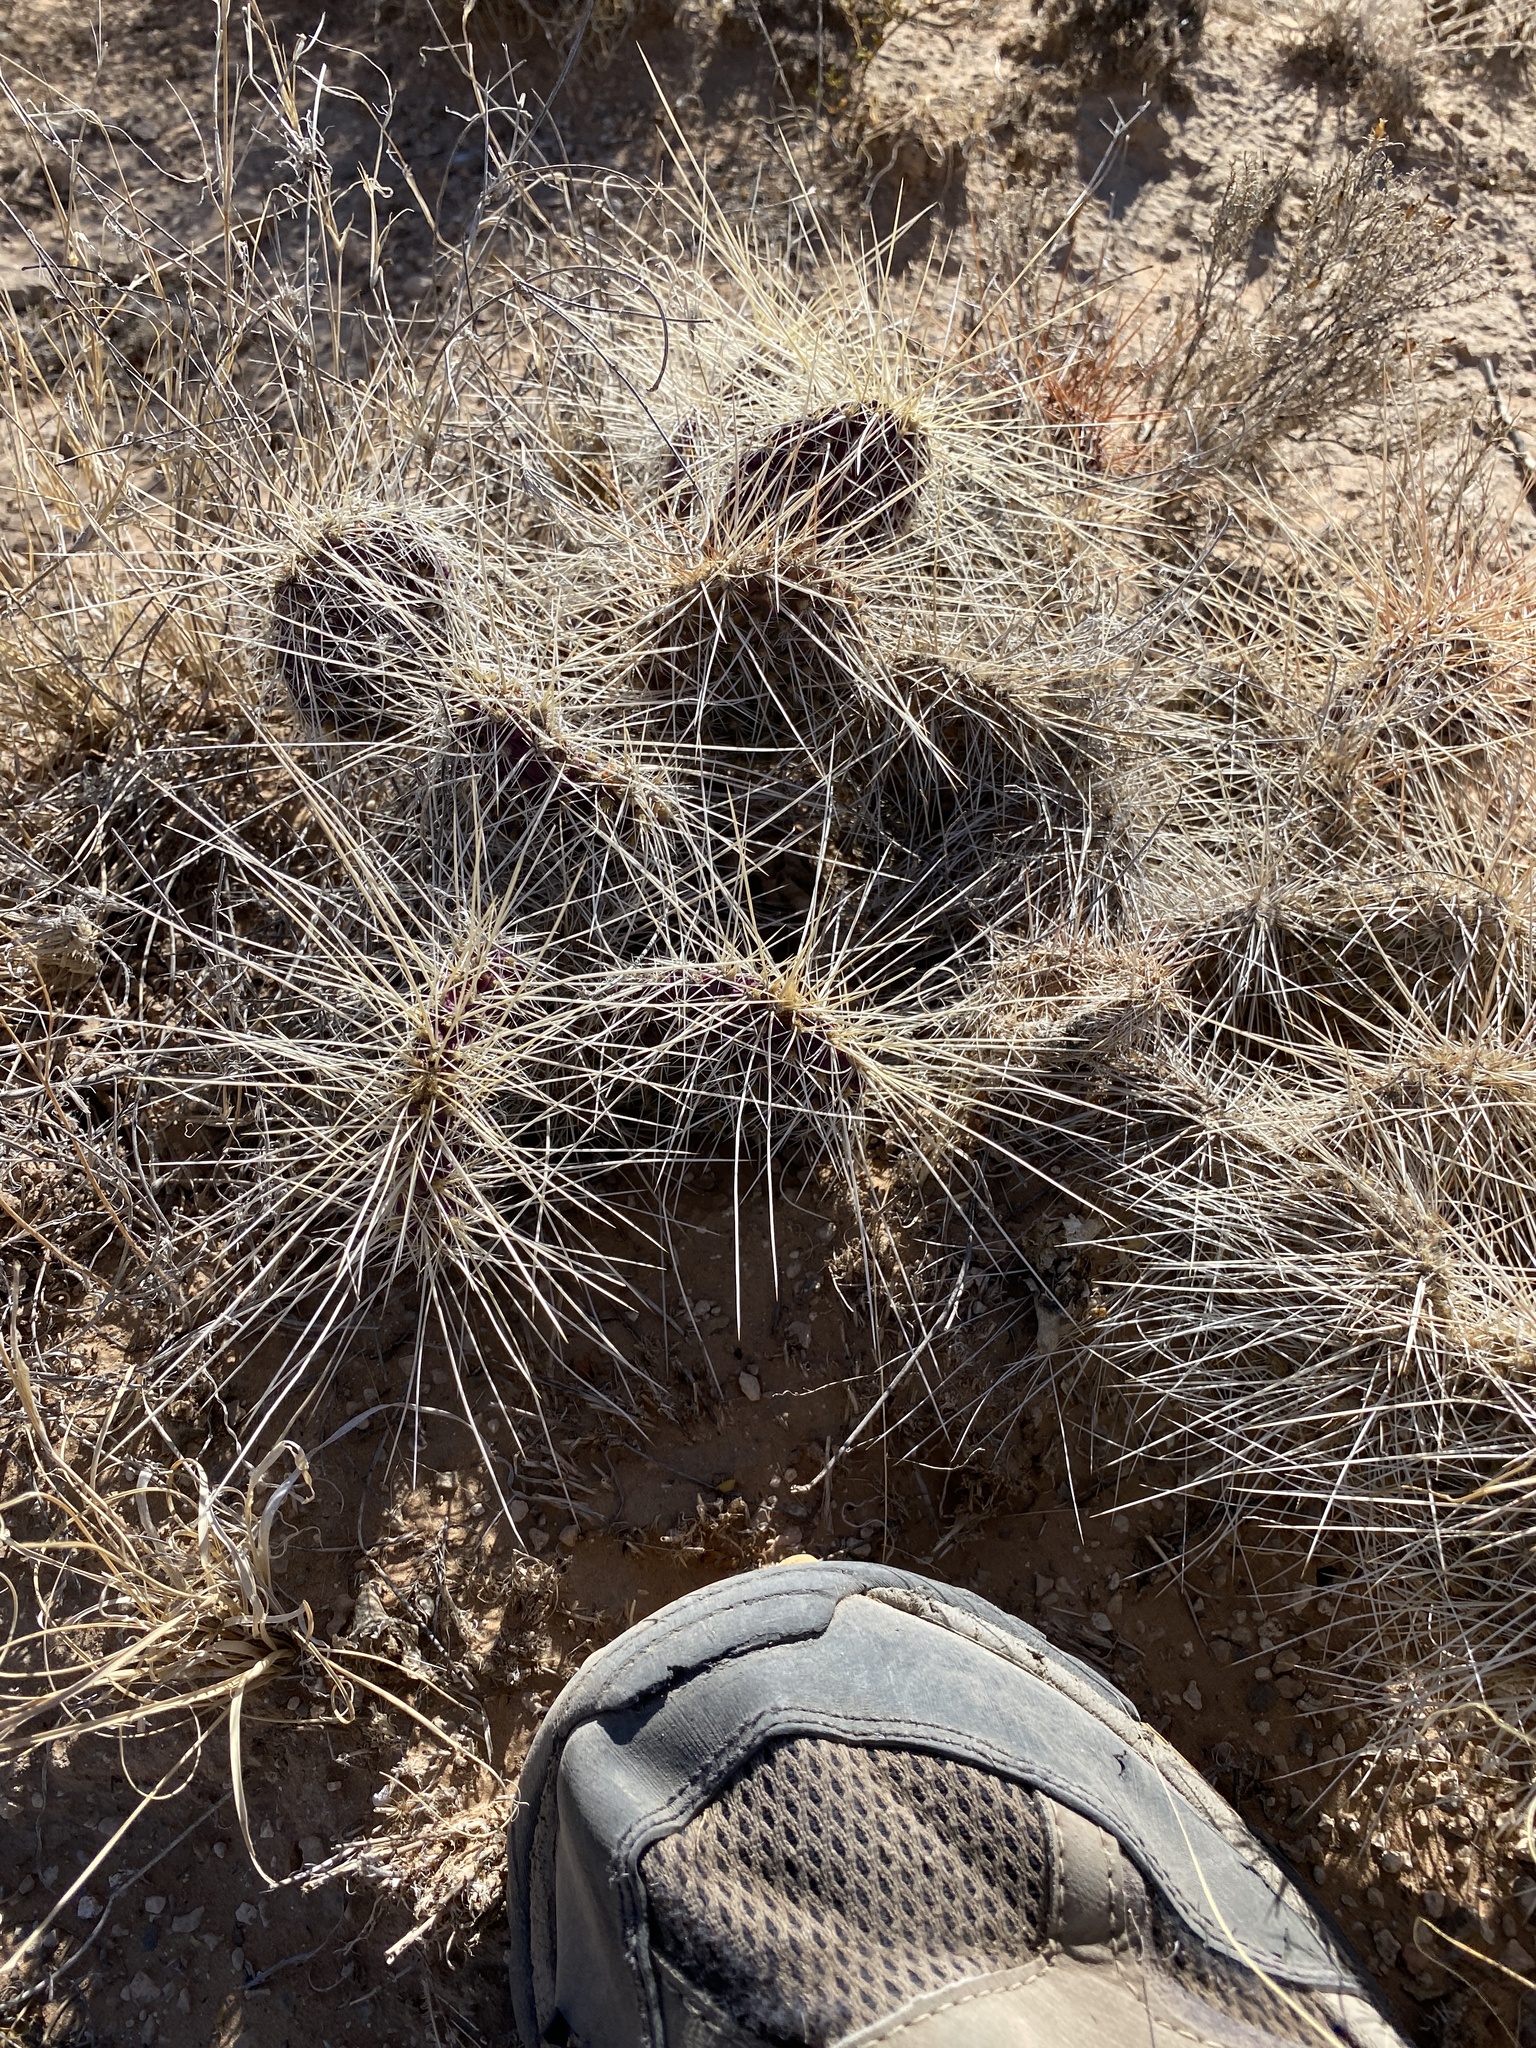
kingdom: Plantae
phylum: Tracheophyta
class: Magnoliopsida
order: Caryophyllales
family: Cactaceae
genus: Opuntia
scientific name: Opuntia polyacantha
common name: Plains prickly-pear
